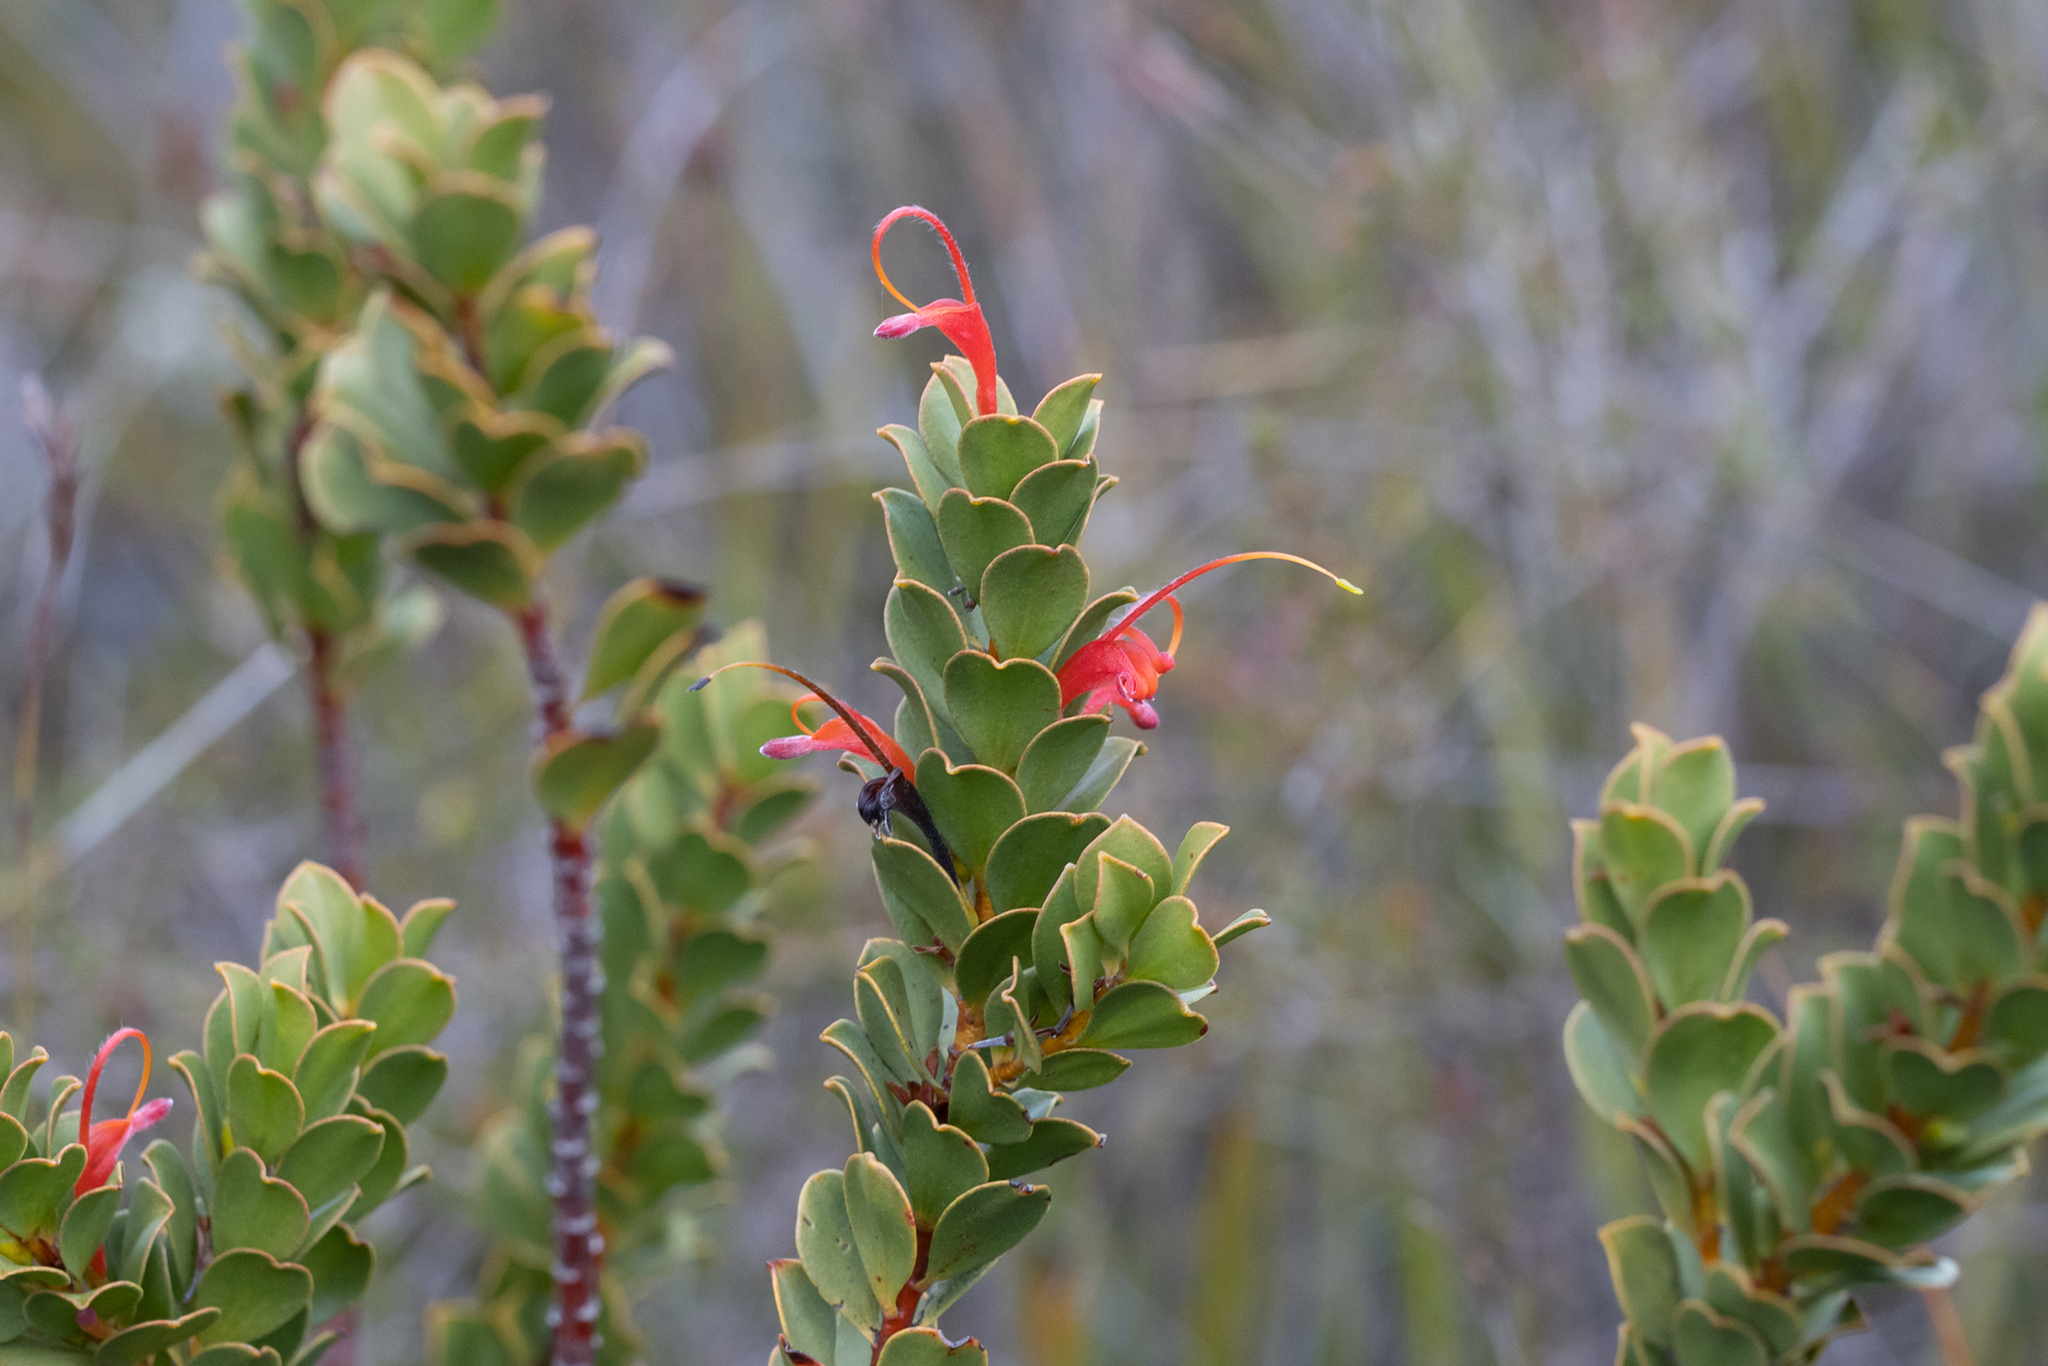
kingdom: Plantae
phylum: Tracheophyta
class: Magnoliopsida
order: Proteales
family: Proteaceae
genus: Adenanthos
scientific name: Adenanthos obovatus
